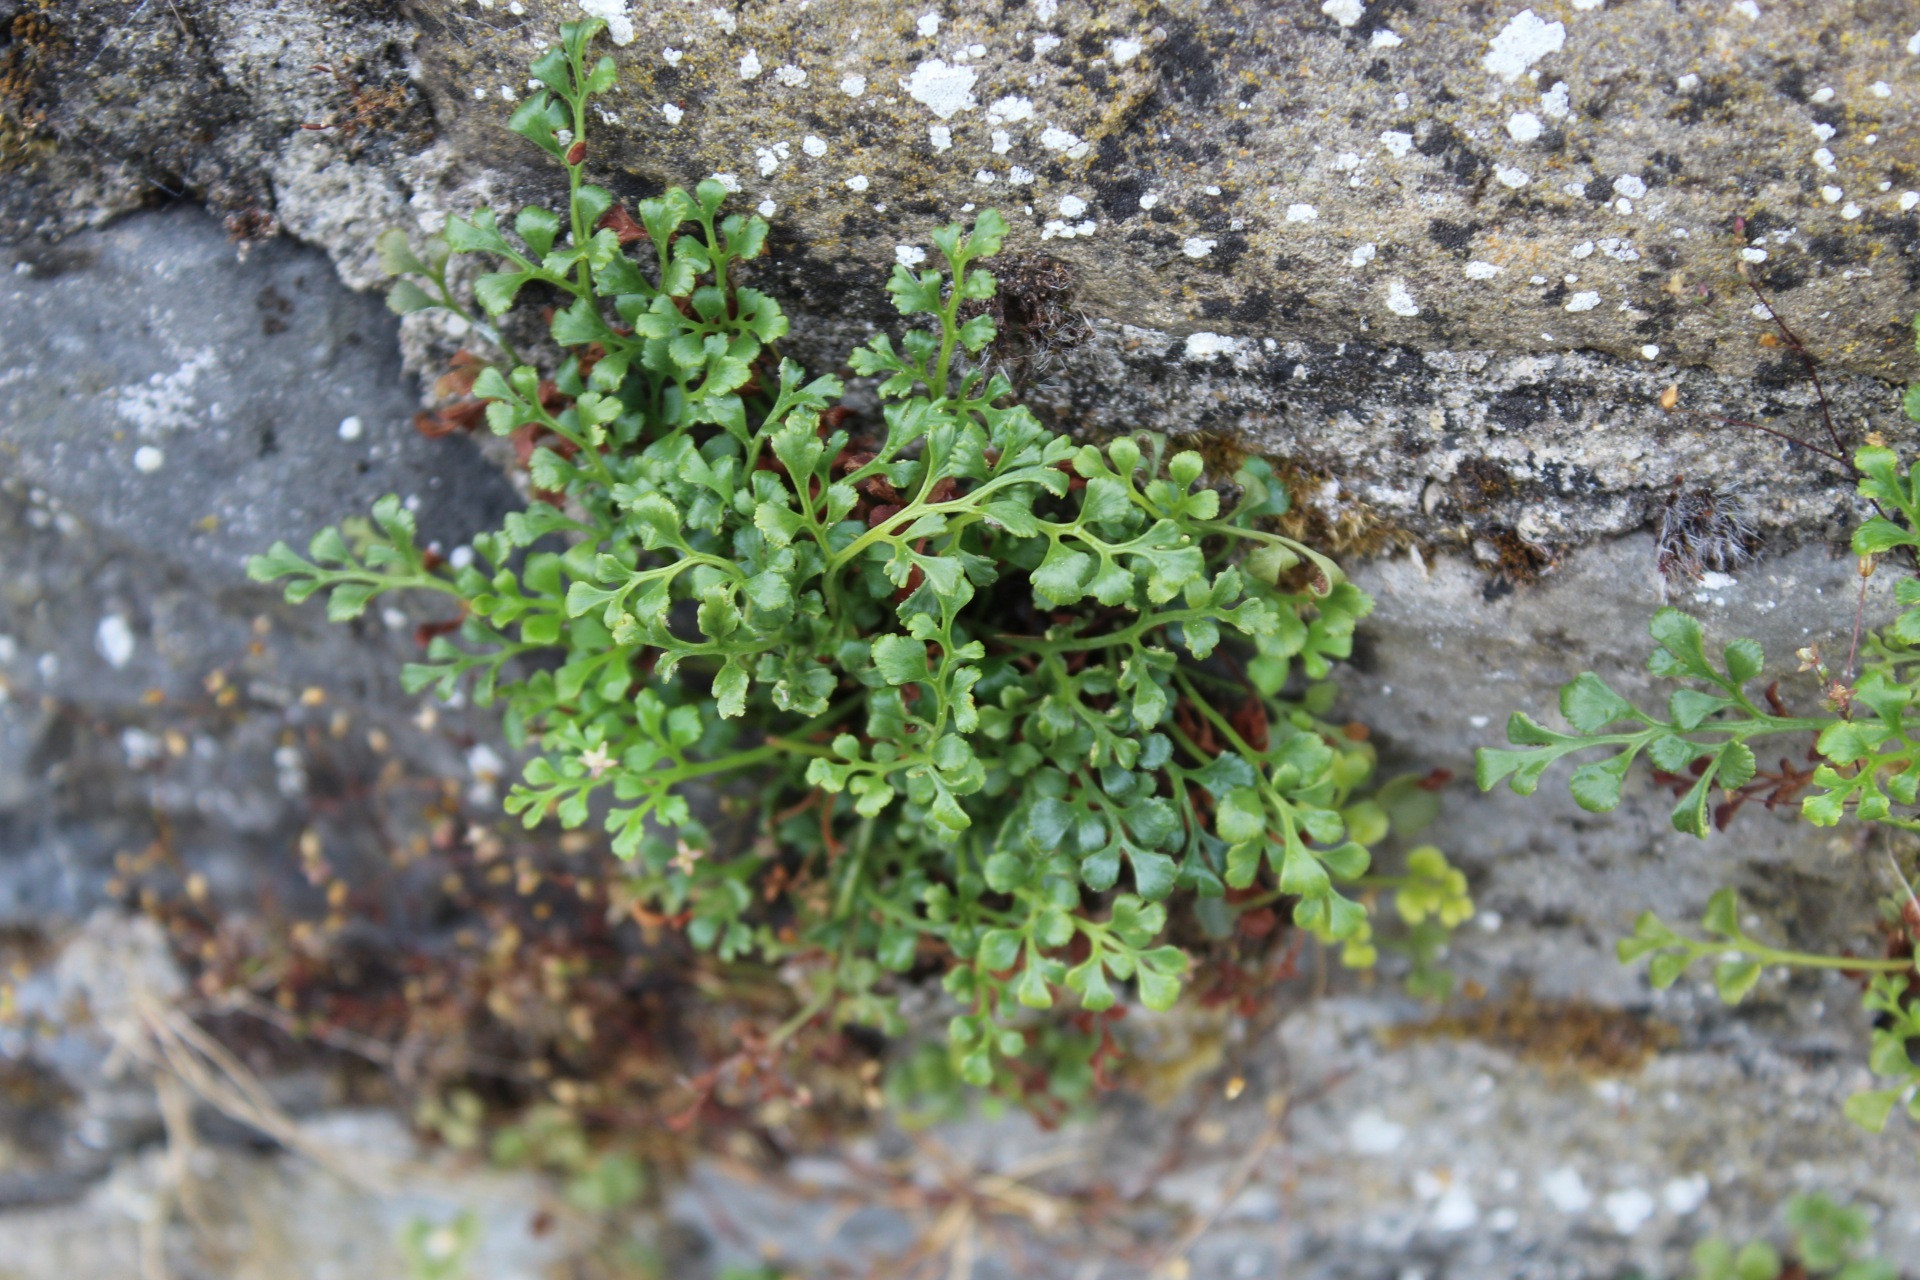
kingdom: Plantae
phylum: Tracheophyta
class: Polypodiopsida
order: Polypodiales
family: Aspleniaceae
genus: Asplenium
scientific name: Asplenium ruta-muraria
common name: Wall-rue
